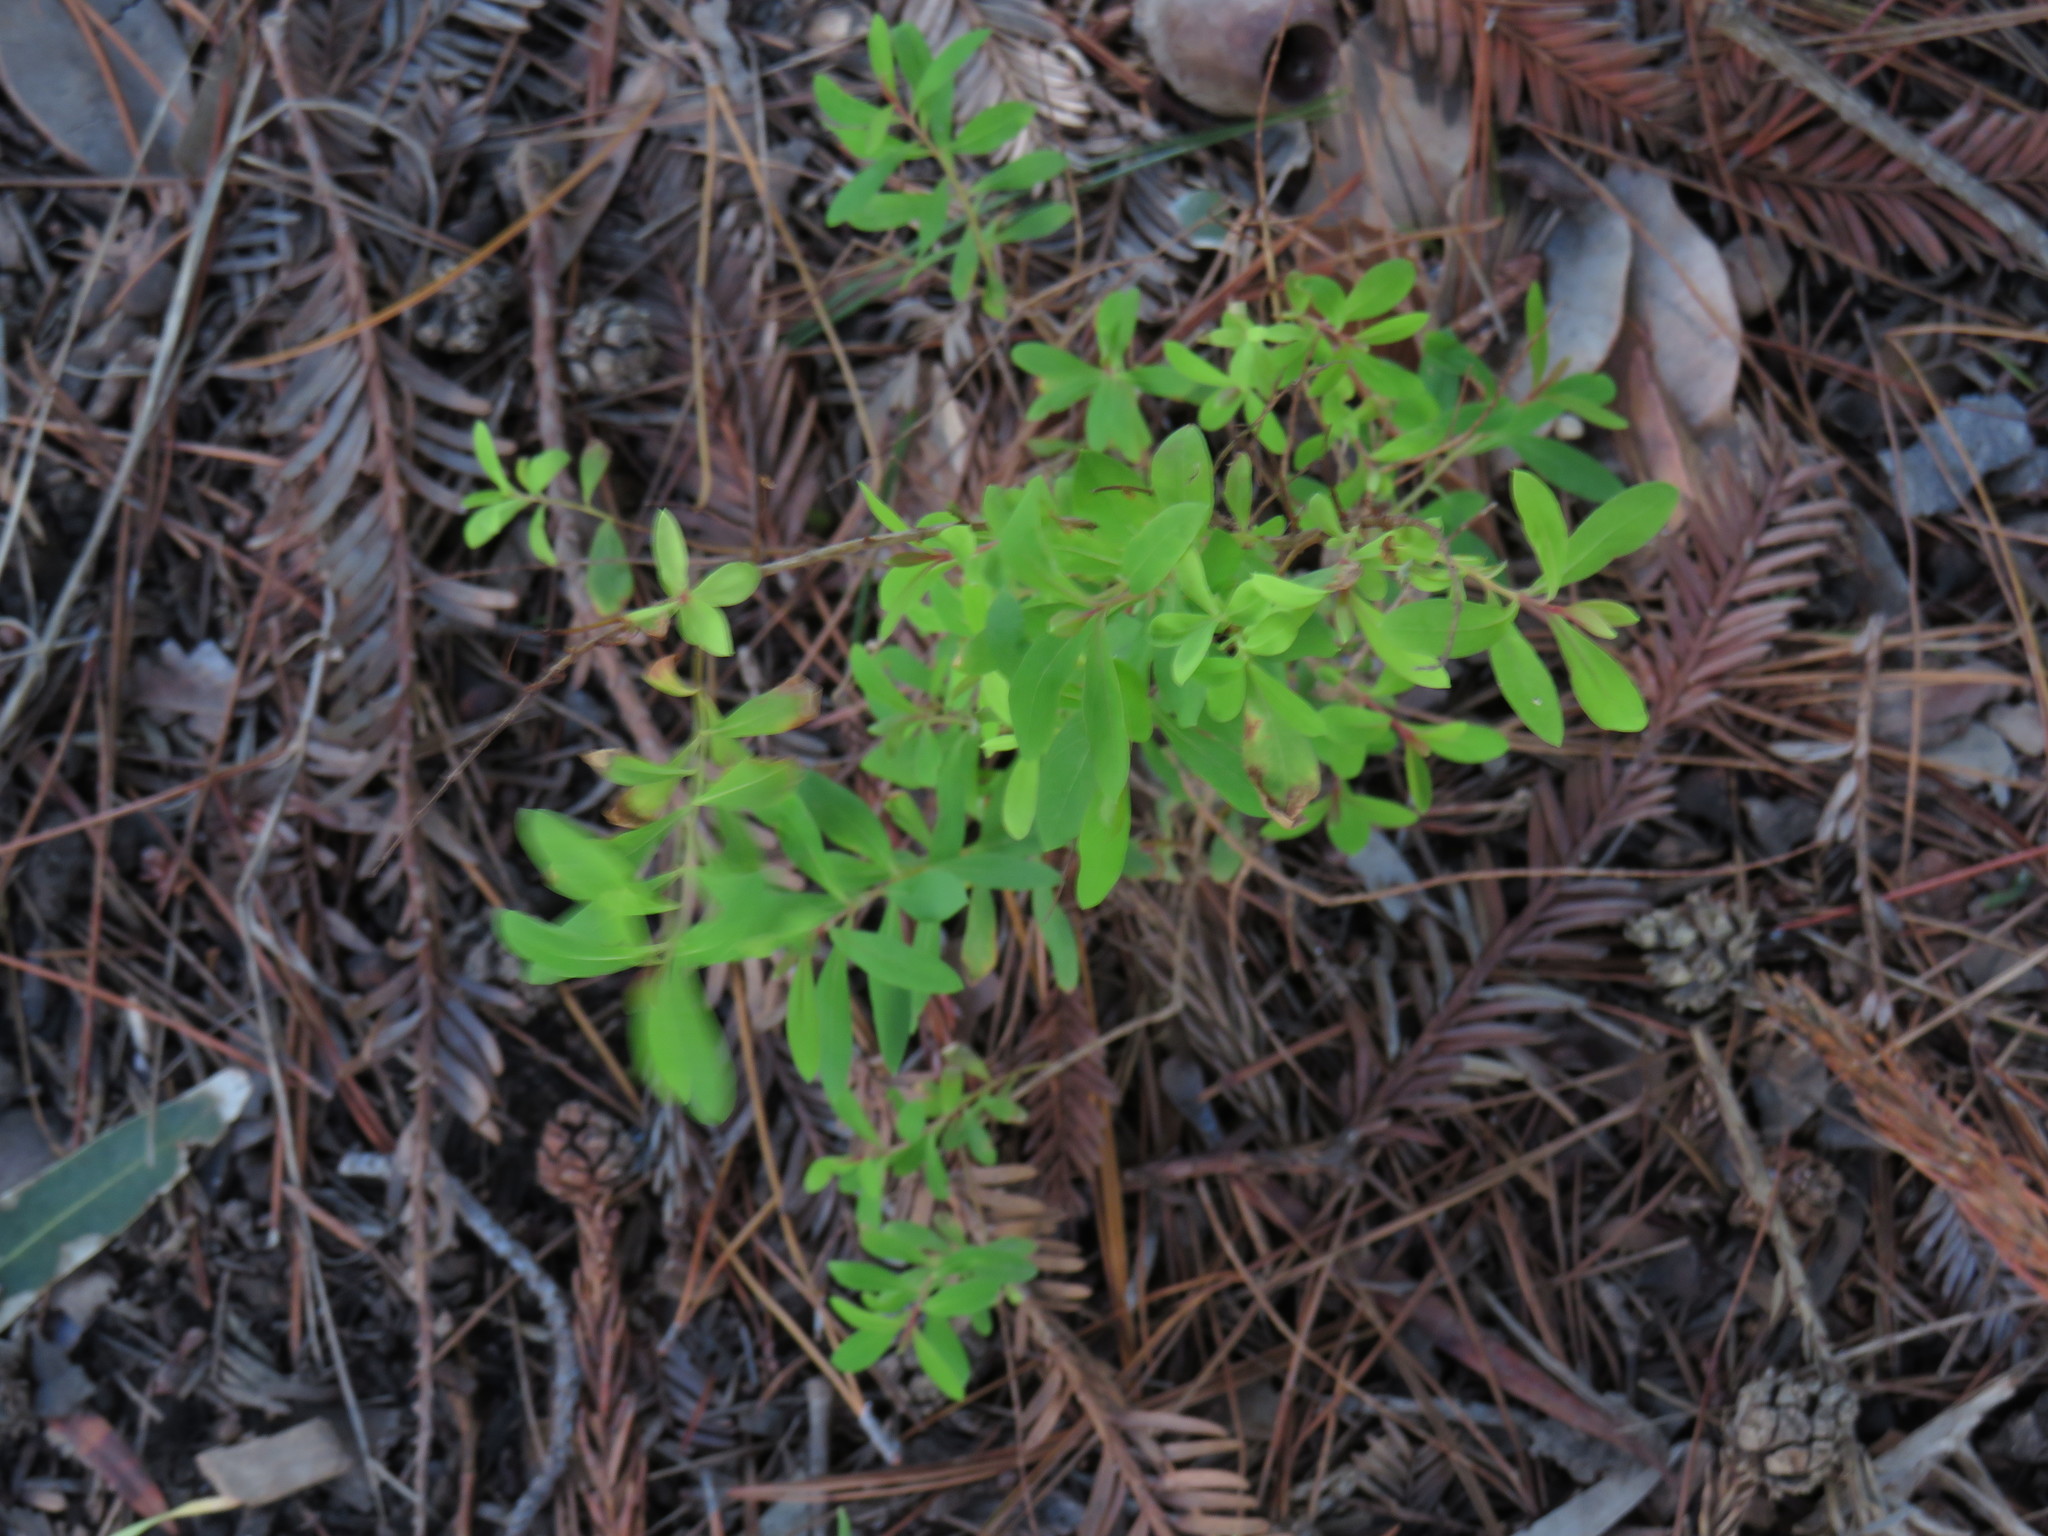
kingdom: Plantae
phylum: Tracheophyta
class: Magnoliopsida
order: Malpighiales
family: Hypericaceae
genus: Hypericum
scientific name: Hypericum canariense
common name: Canary island st. johnswort
